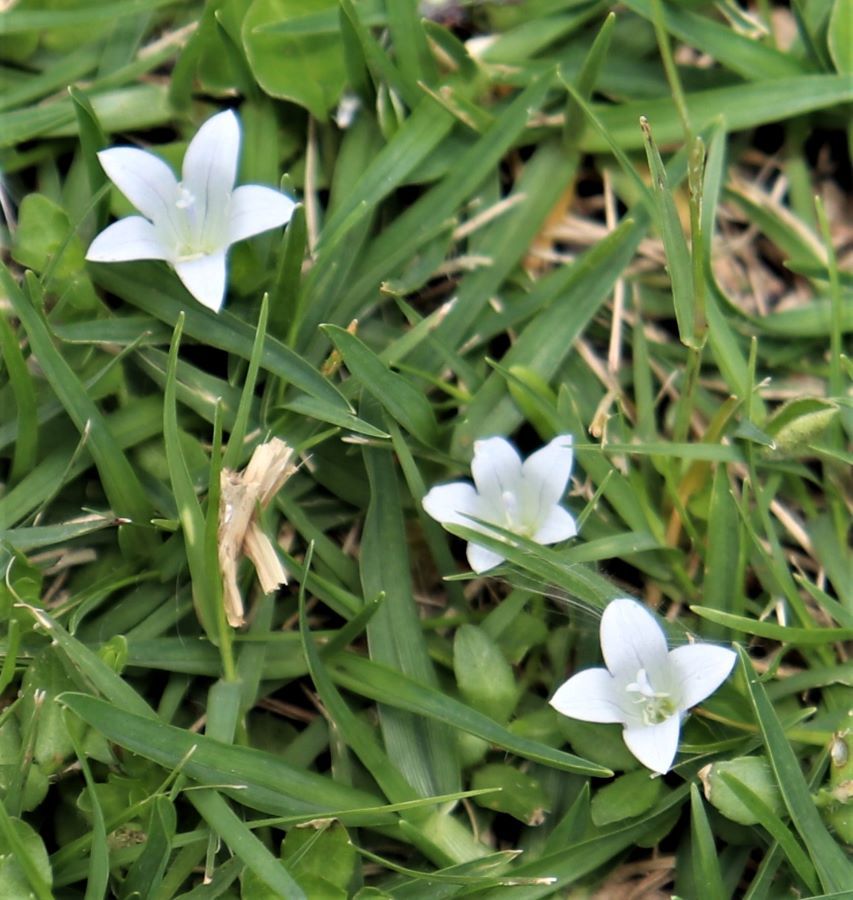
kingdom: Plantae
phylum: Tracheophyta
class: Magnoliopsida
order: Asterales
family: Campanulaceae
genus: Wahlenbergia
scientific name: Wahlenbergia procumbens
